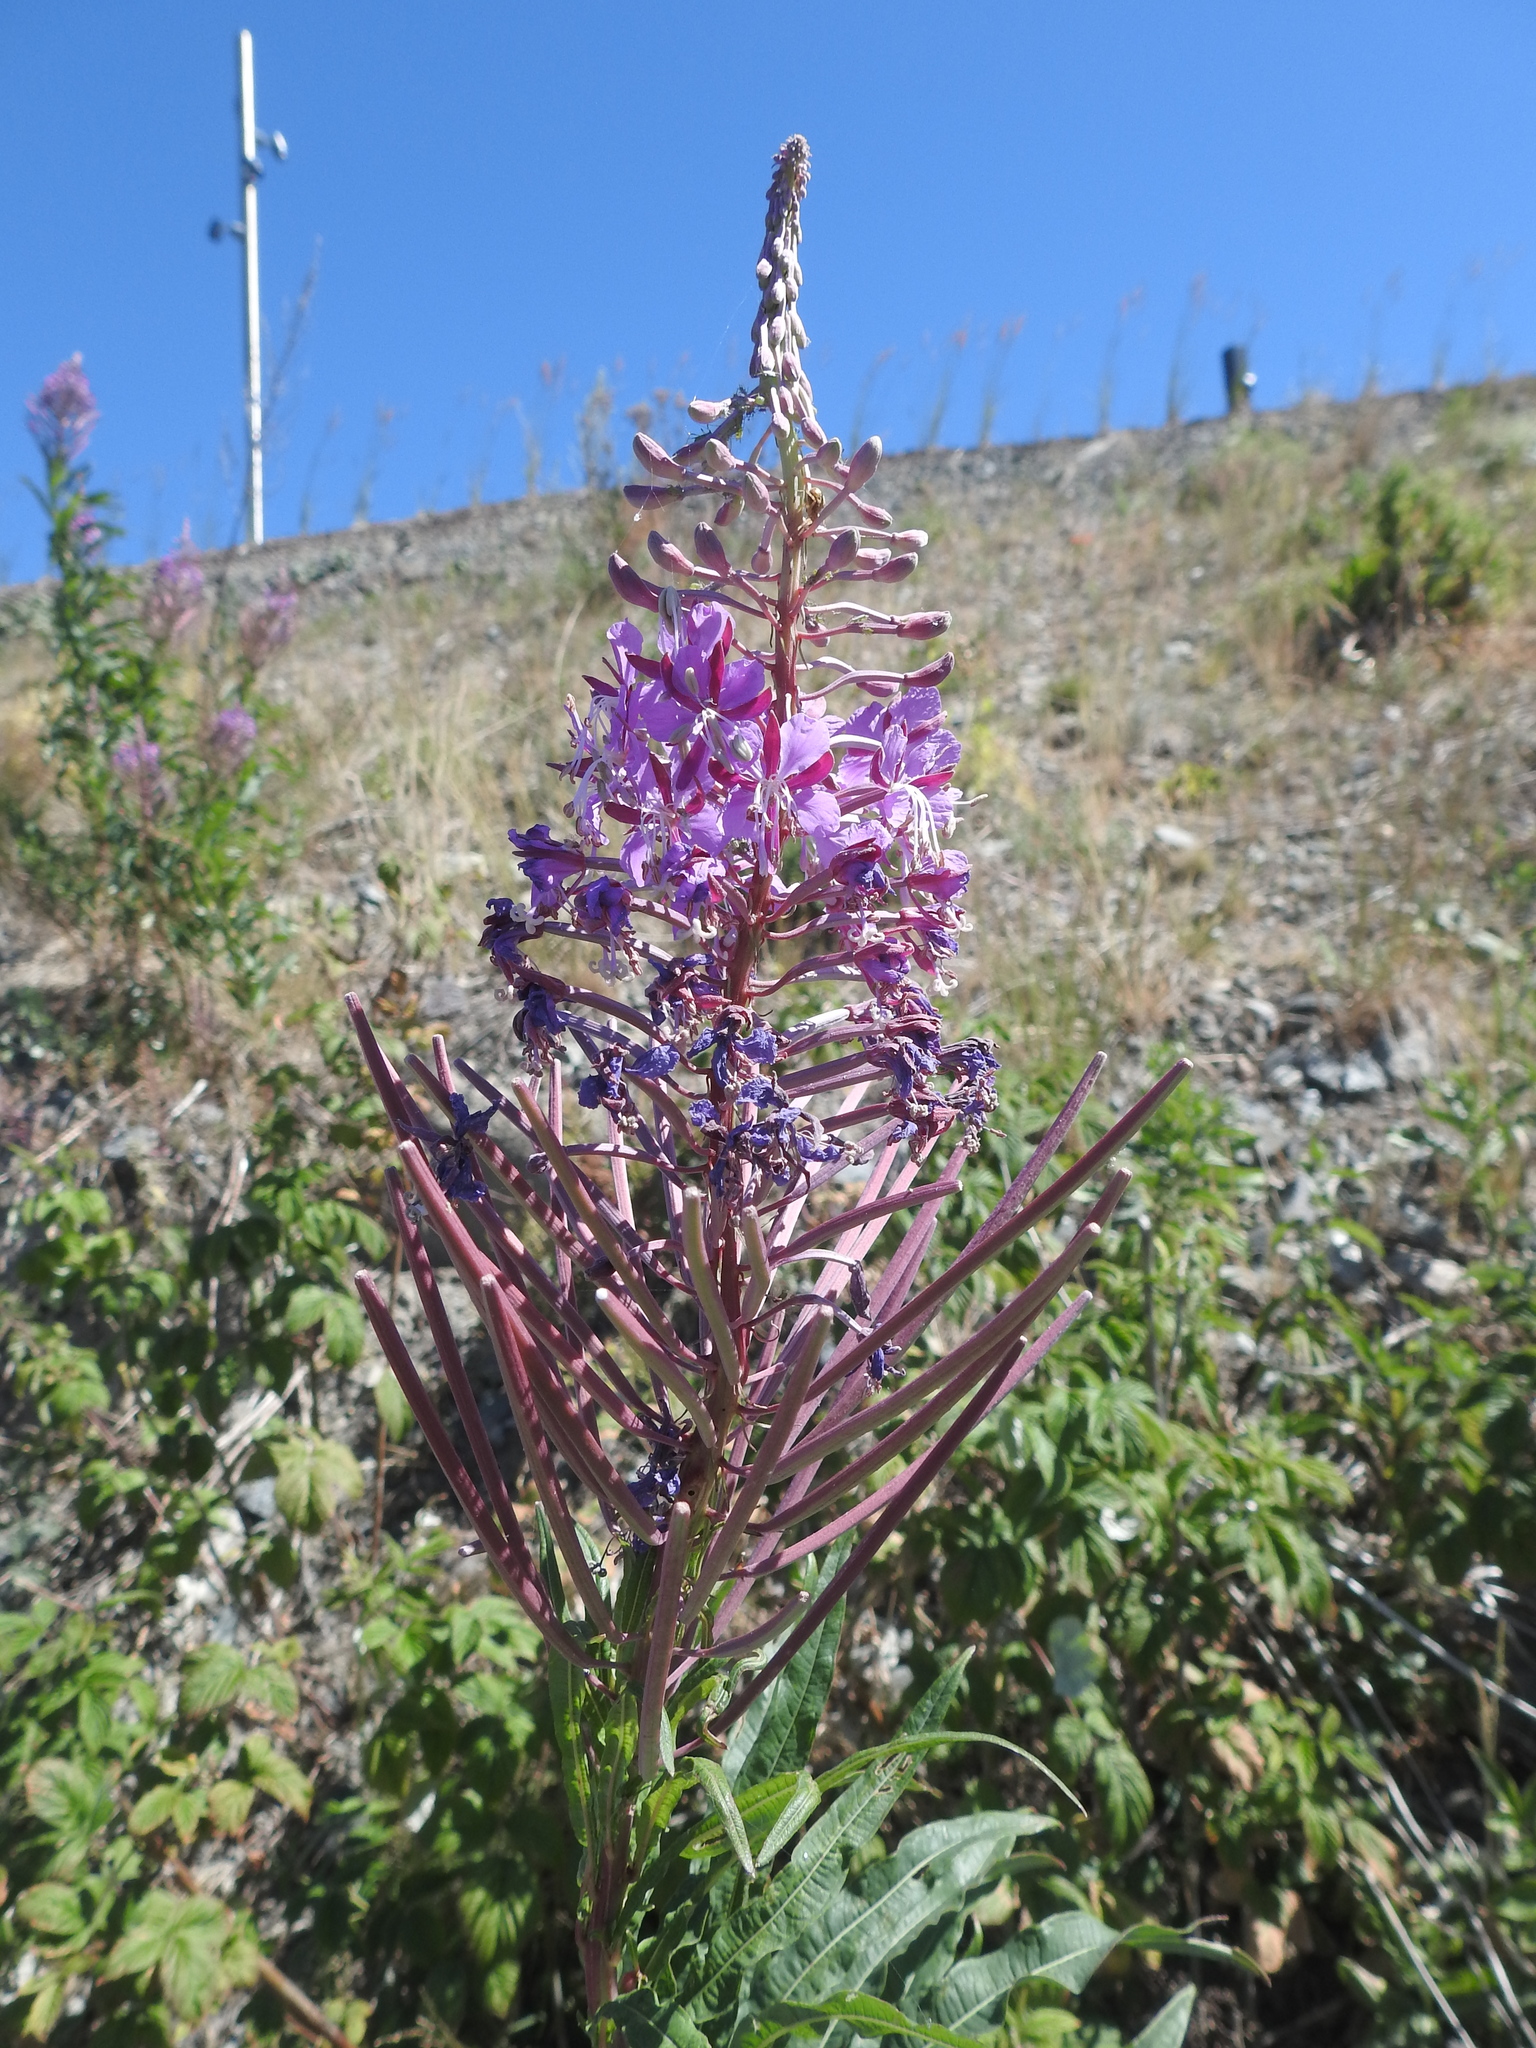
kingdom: Plantae
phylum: Tracheophyta
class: Magnoliopsida
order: Myrtales
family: Onagraceae
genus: Chamaenerion
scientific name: Chamaenerion angustifolium
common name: Fireweed
